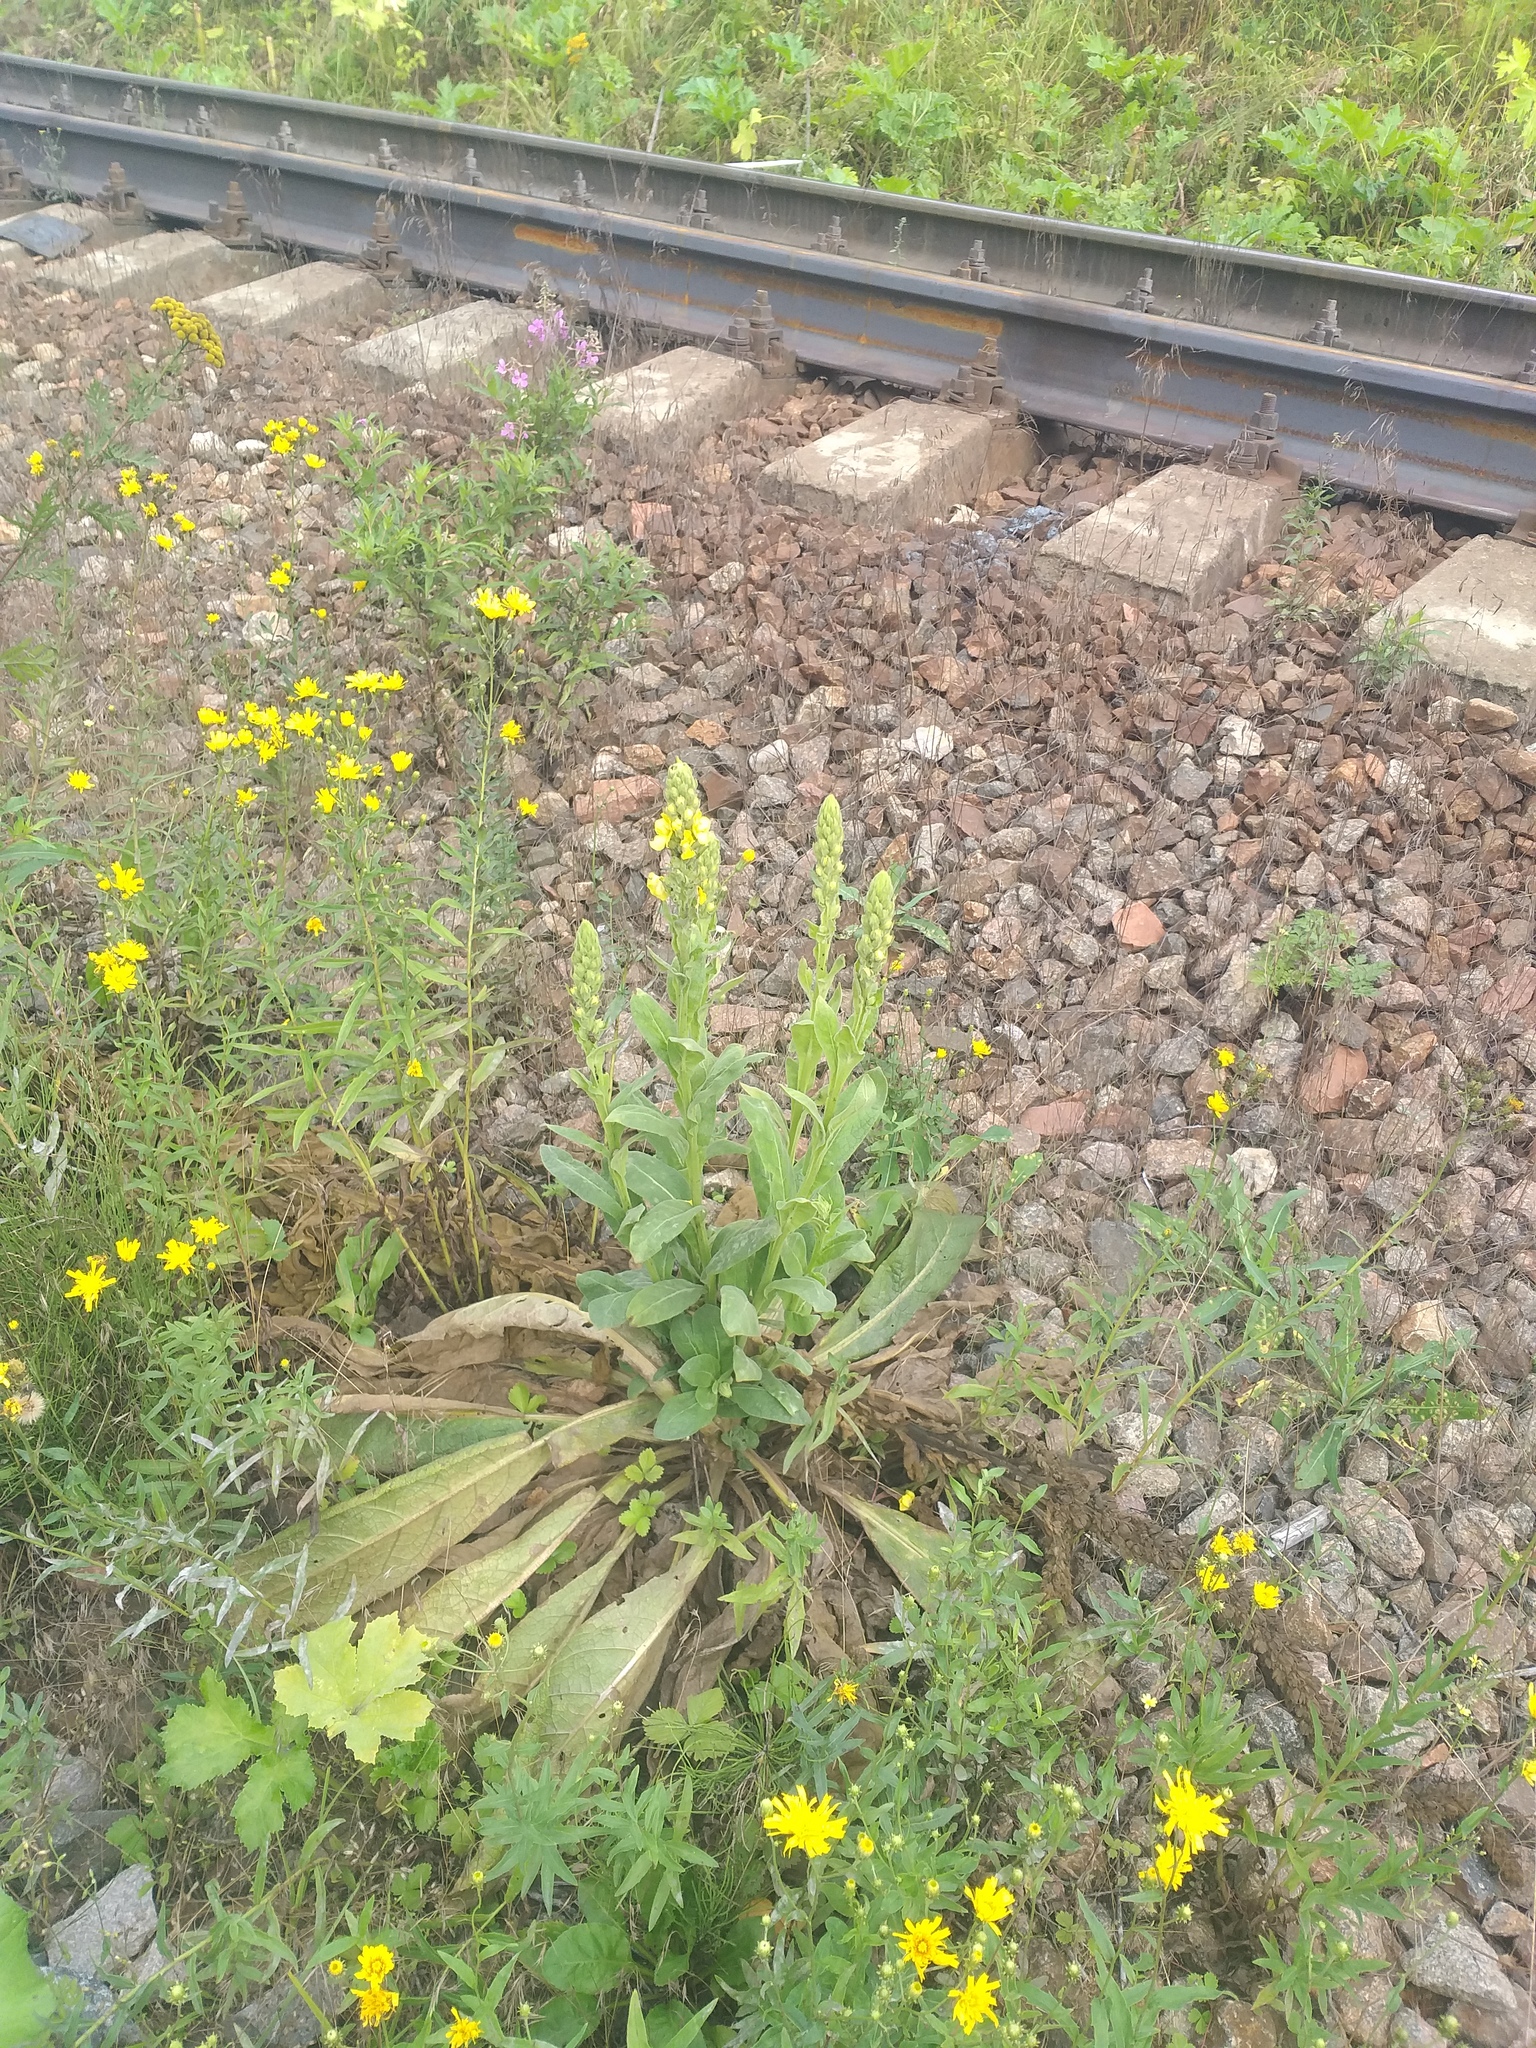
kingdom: Plantae
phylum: Tracheophyta
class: Magnoliopsida
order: Lamiales
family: Scrophulariaceae
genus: Verbascum
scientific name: Verbascum thapsus
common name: Common mullein
